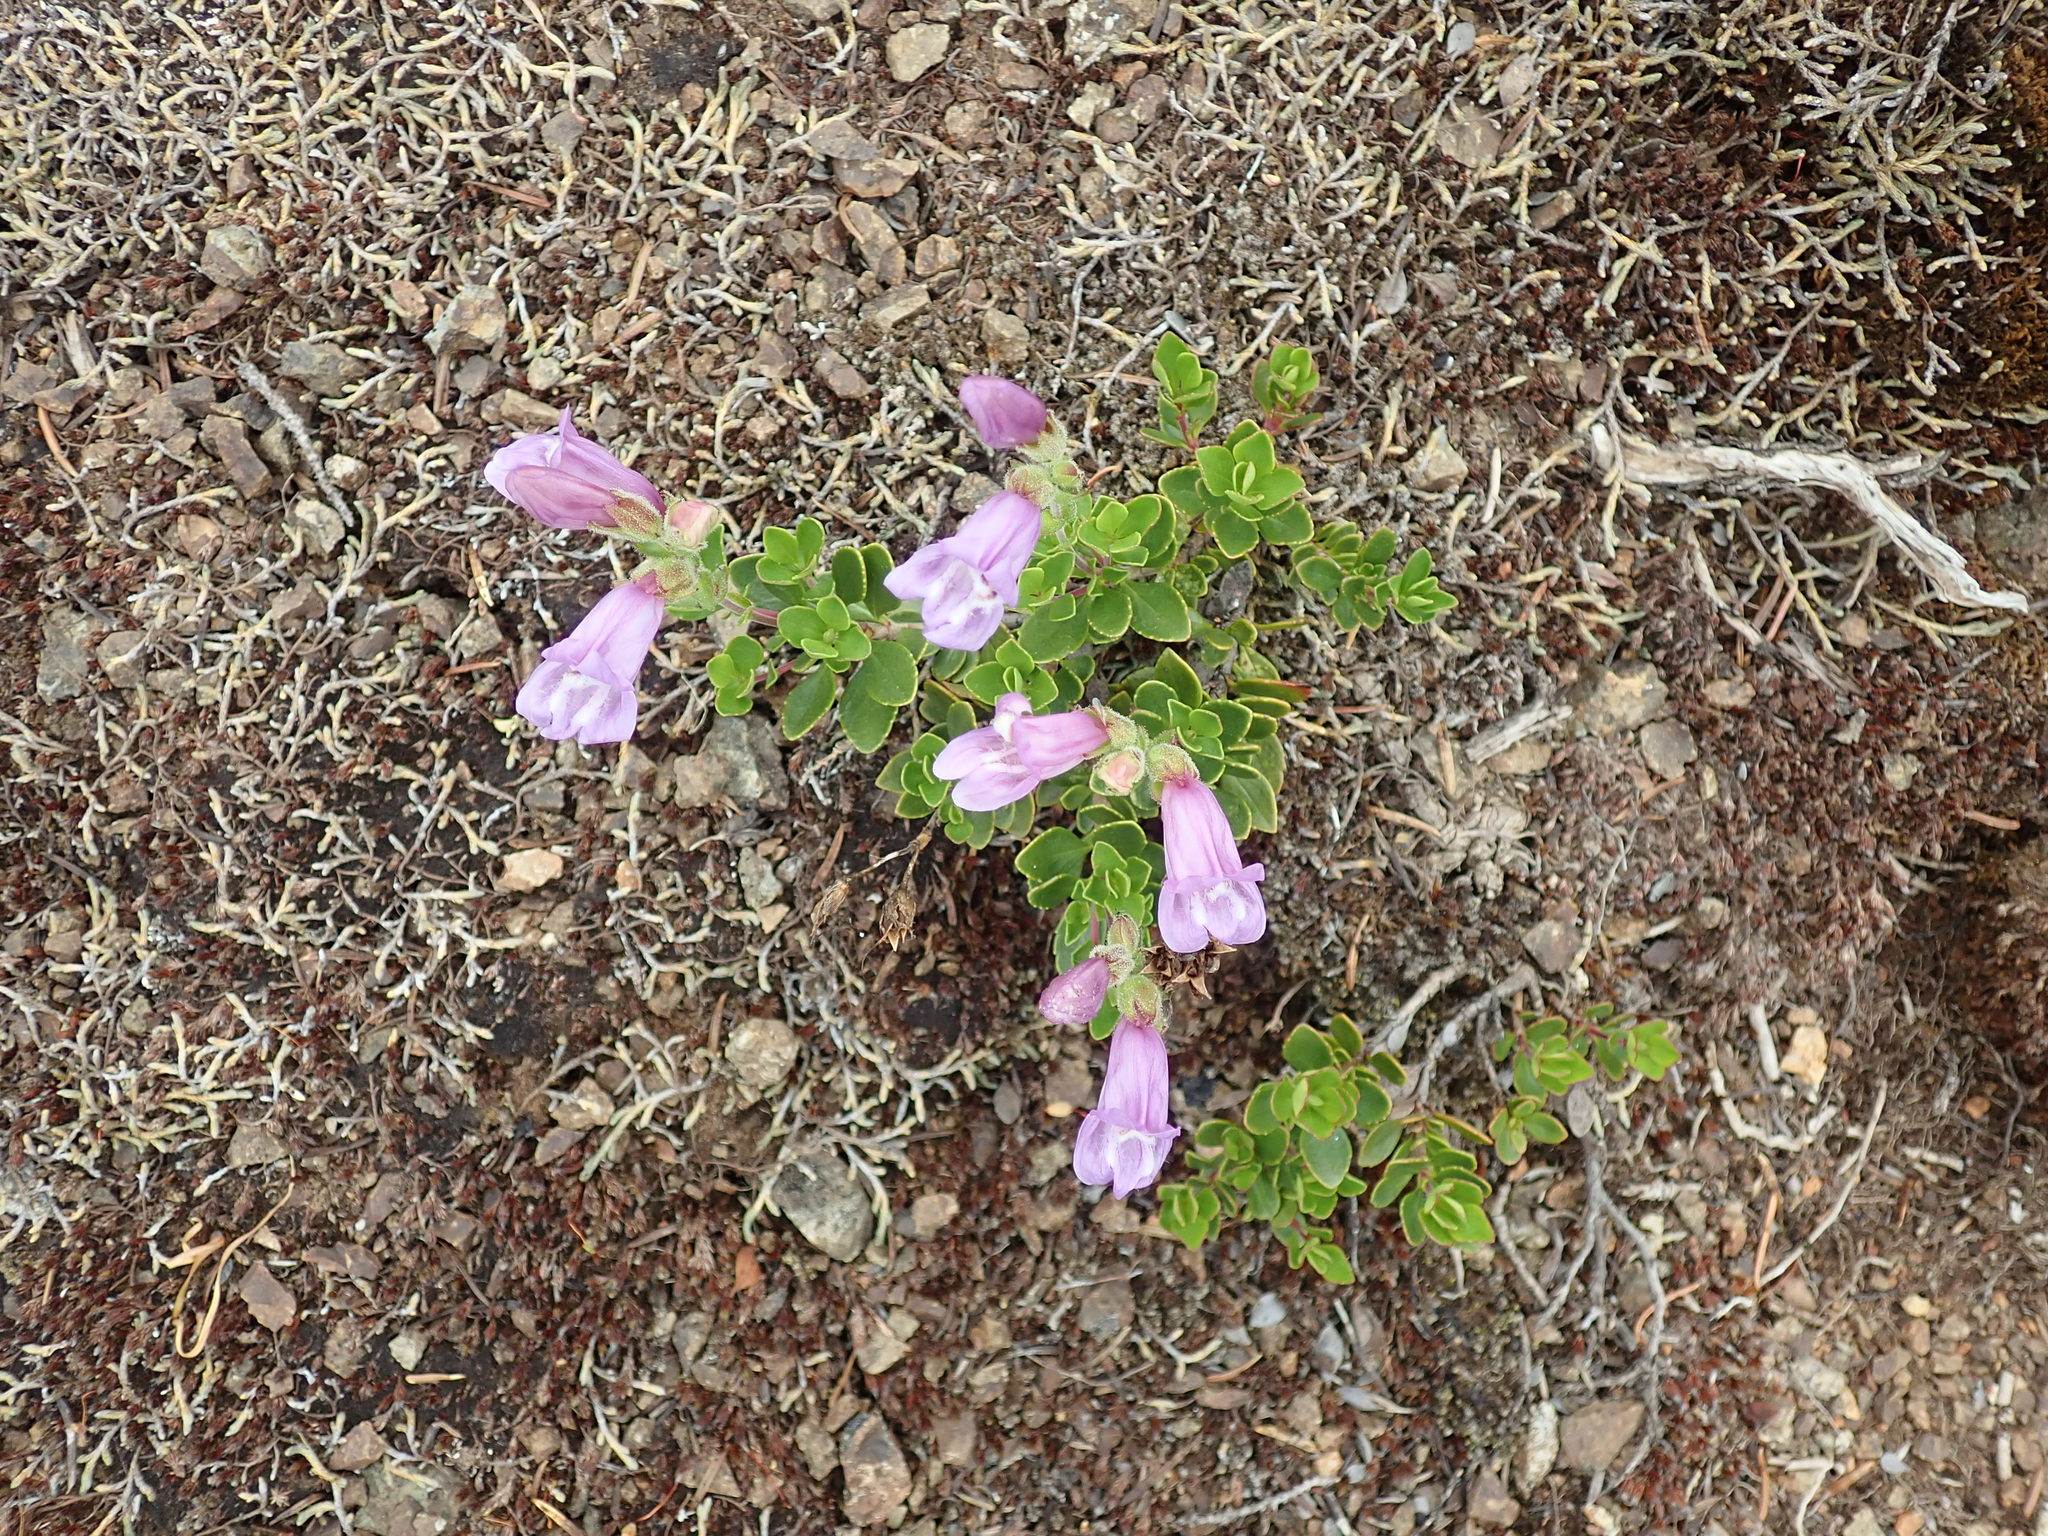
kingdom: Plantae
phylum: Tracheophyta
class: Magnoliopsida
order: Lamiales
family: Plantaginaceae
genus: Penstemon
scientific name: Penstemon davidsonii
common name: Davidson's penstemon
